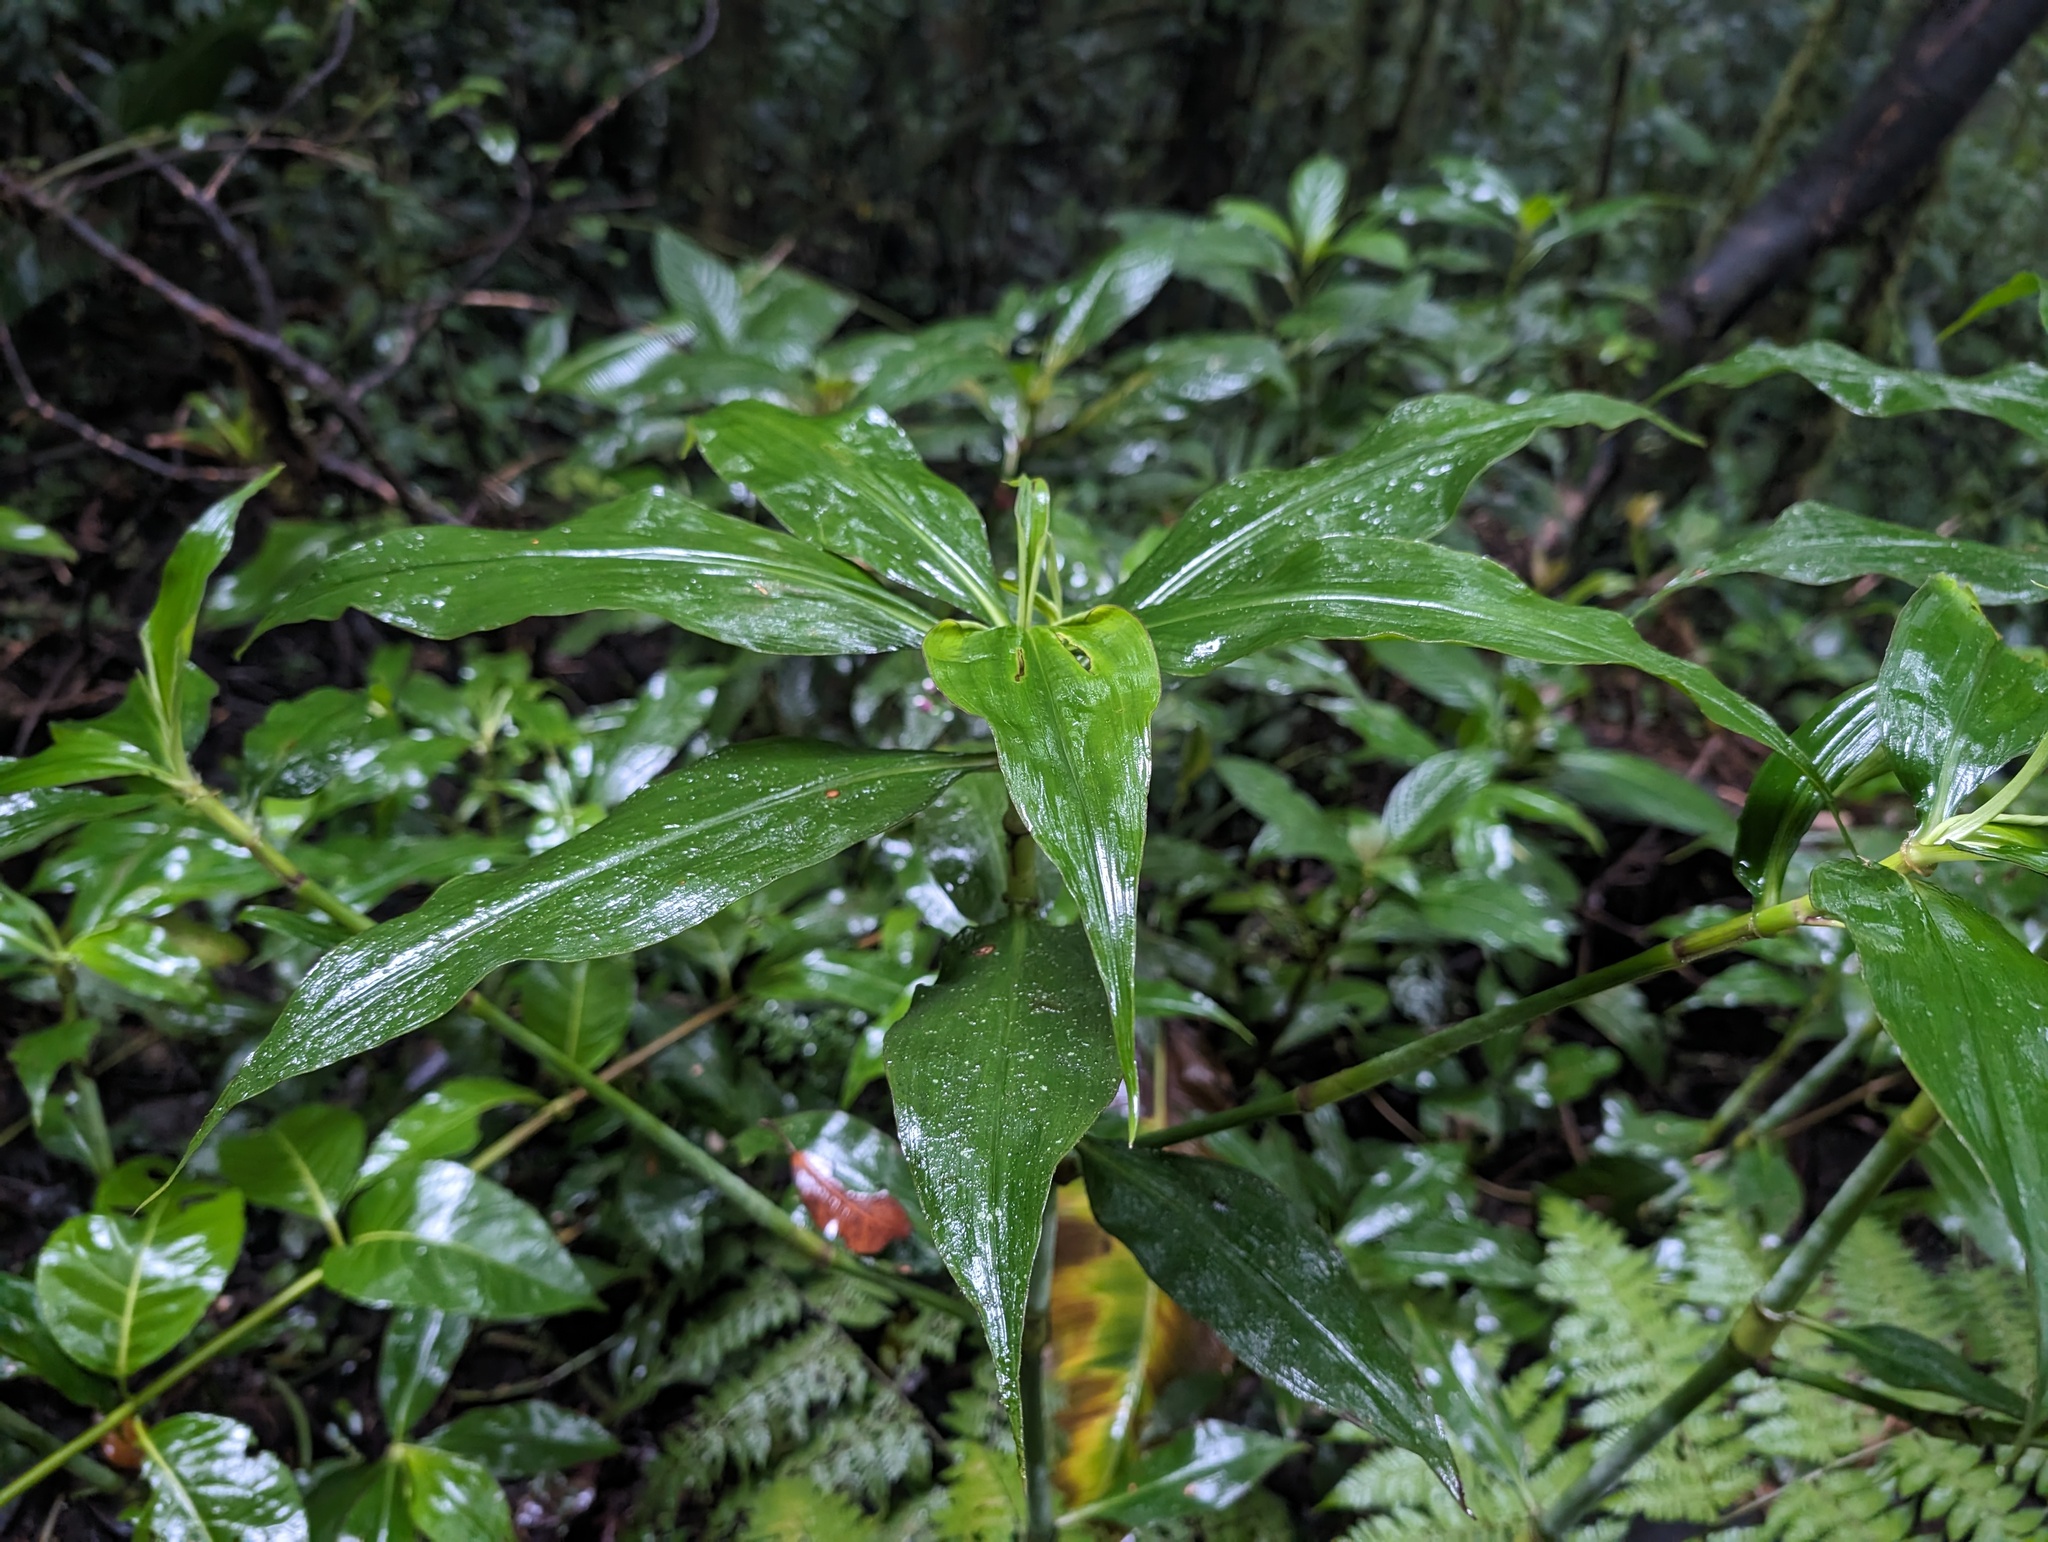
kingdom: Plantae
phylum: Tracheophyta
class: Liliopsida
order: Commelinales
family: Commelinaceae
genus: Tradescantia
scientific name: Tradescantia zanonia
